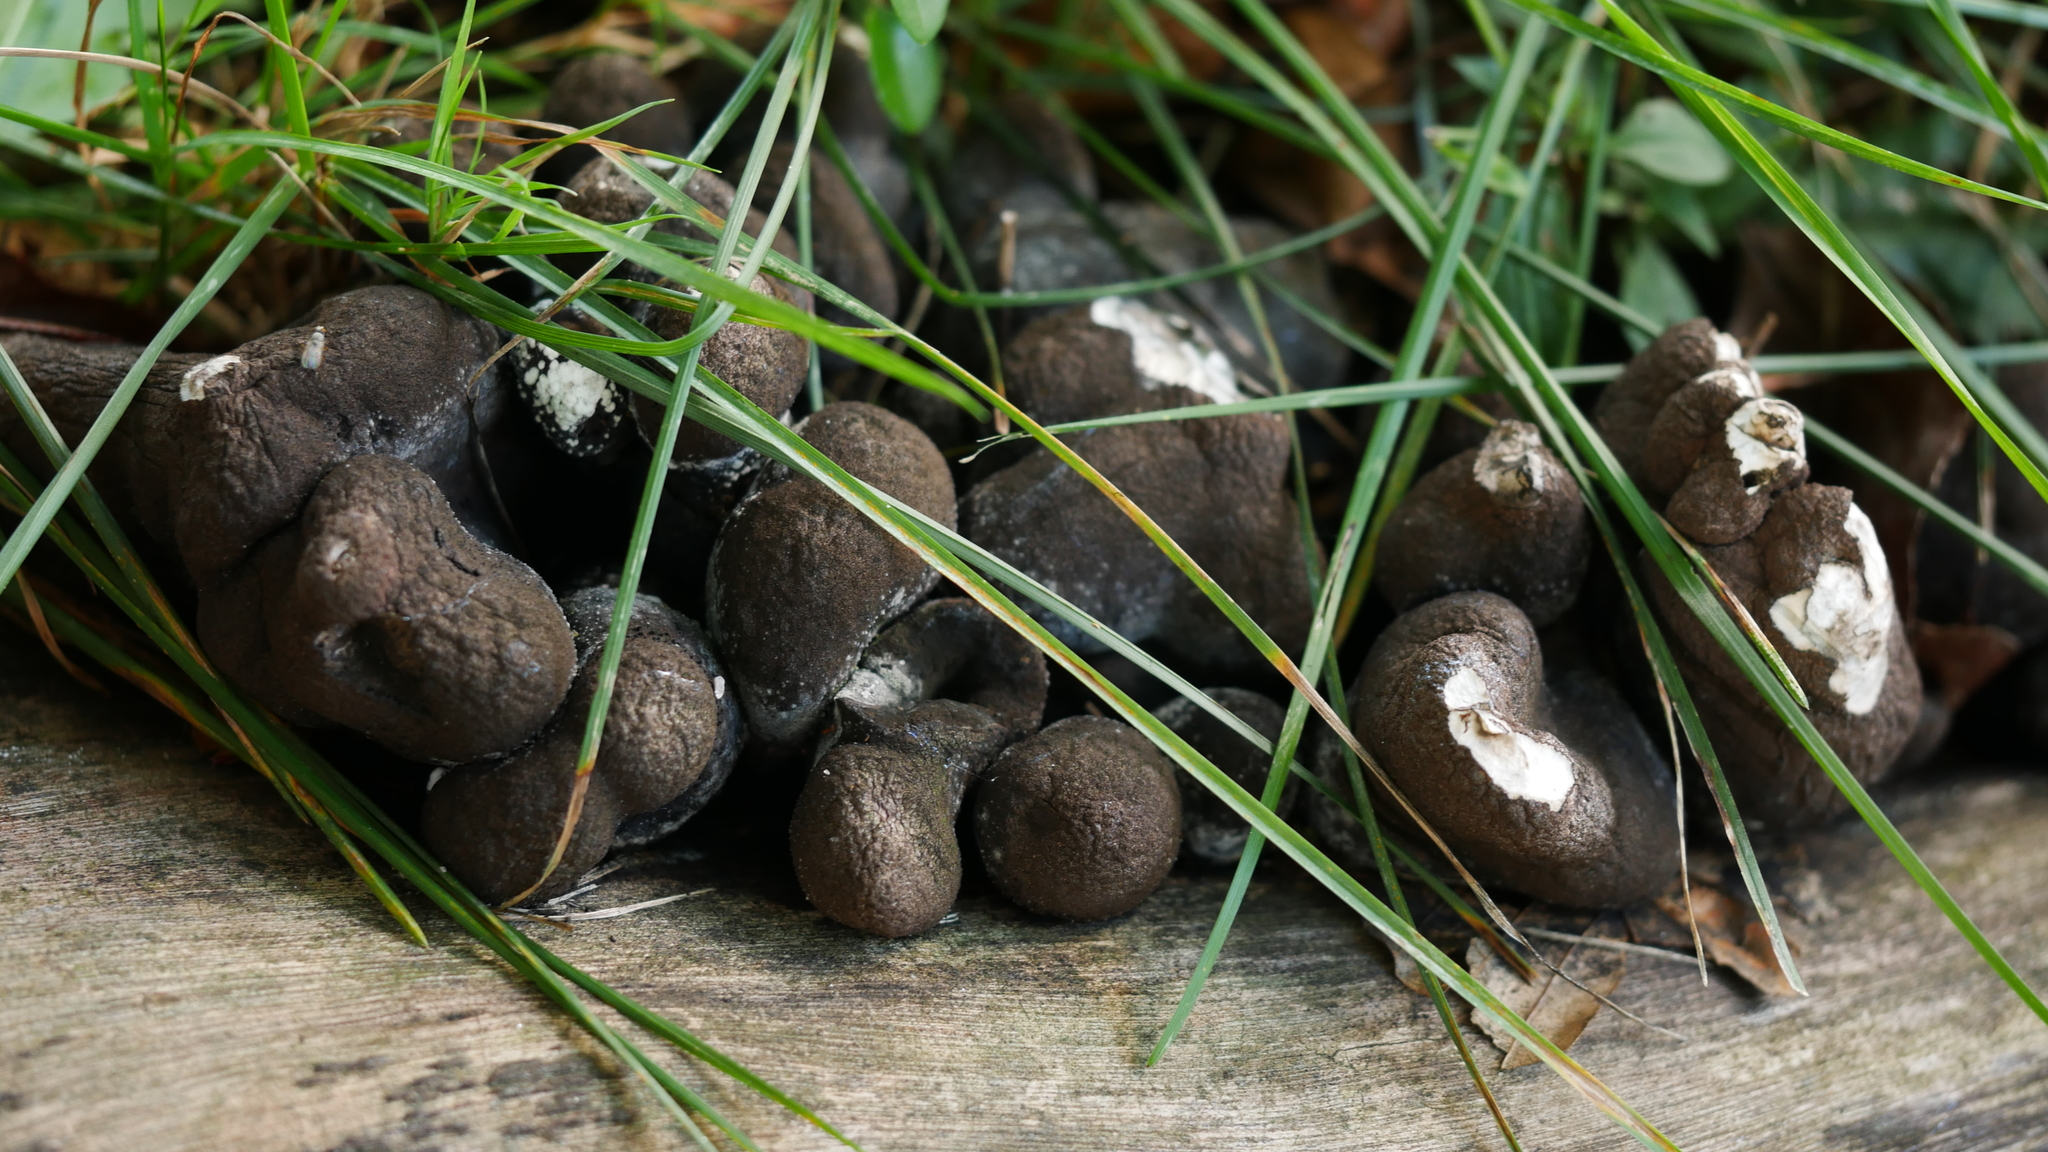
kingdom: Fungi
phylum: Ascomycota
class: Sordariomycetes
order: Xylariales
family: Xylariaceae
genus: Xylaria
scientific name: Xylaria polymorpha
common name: Dead man's fingers
